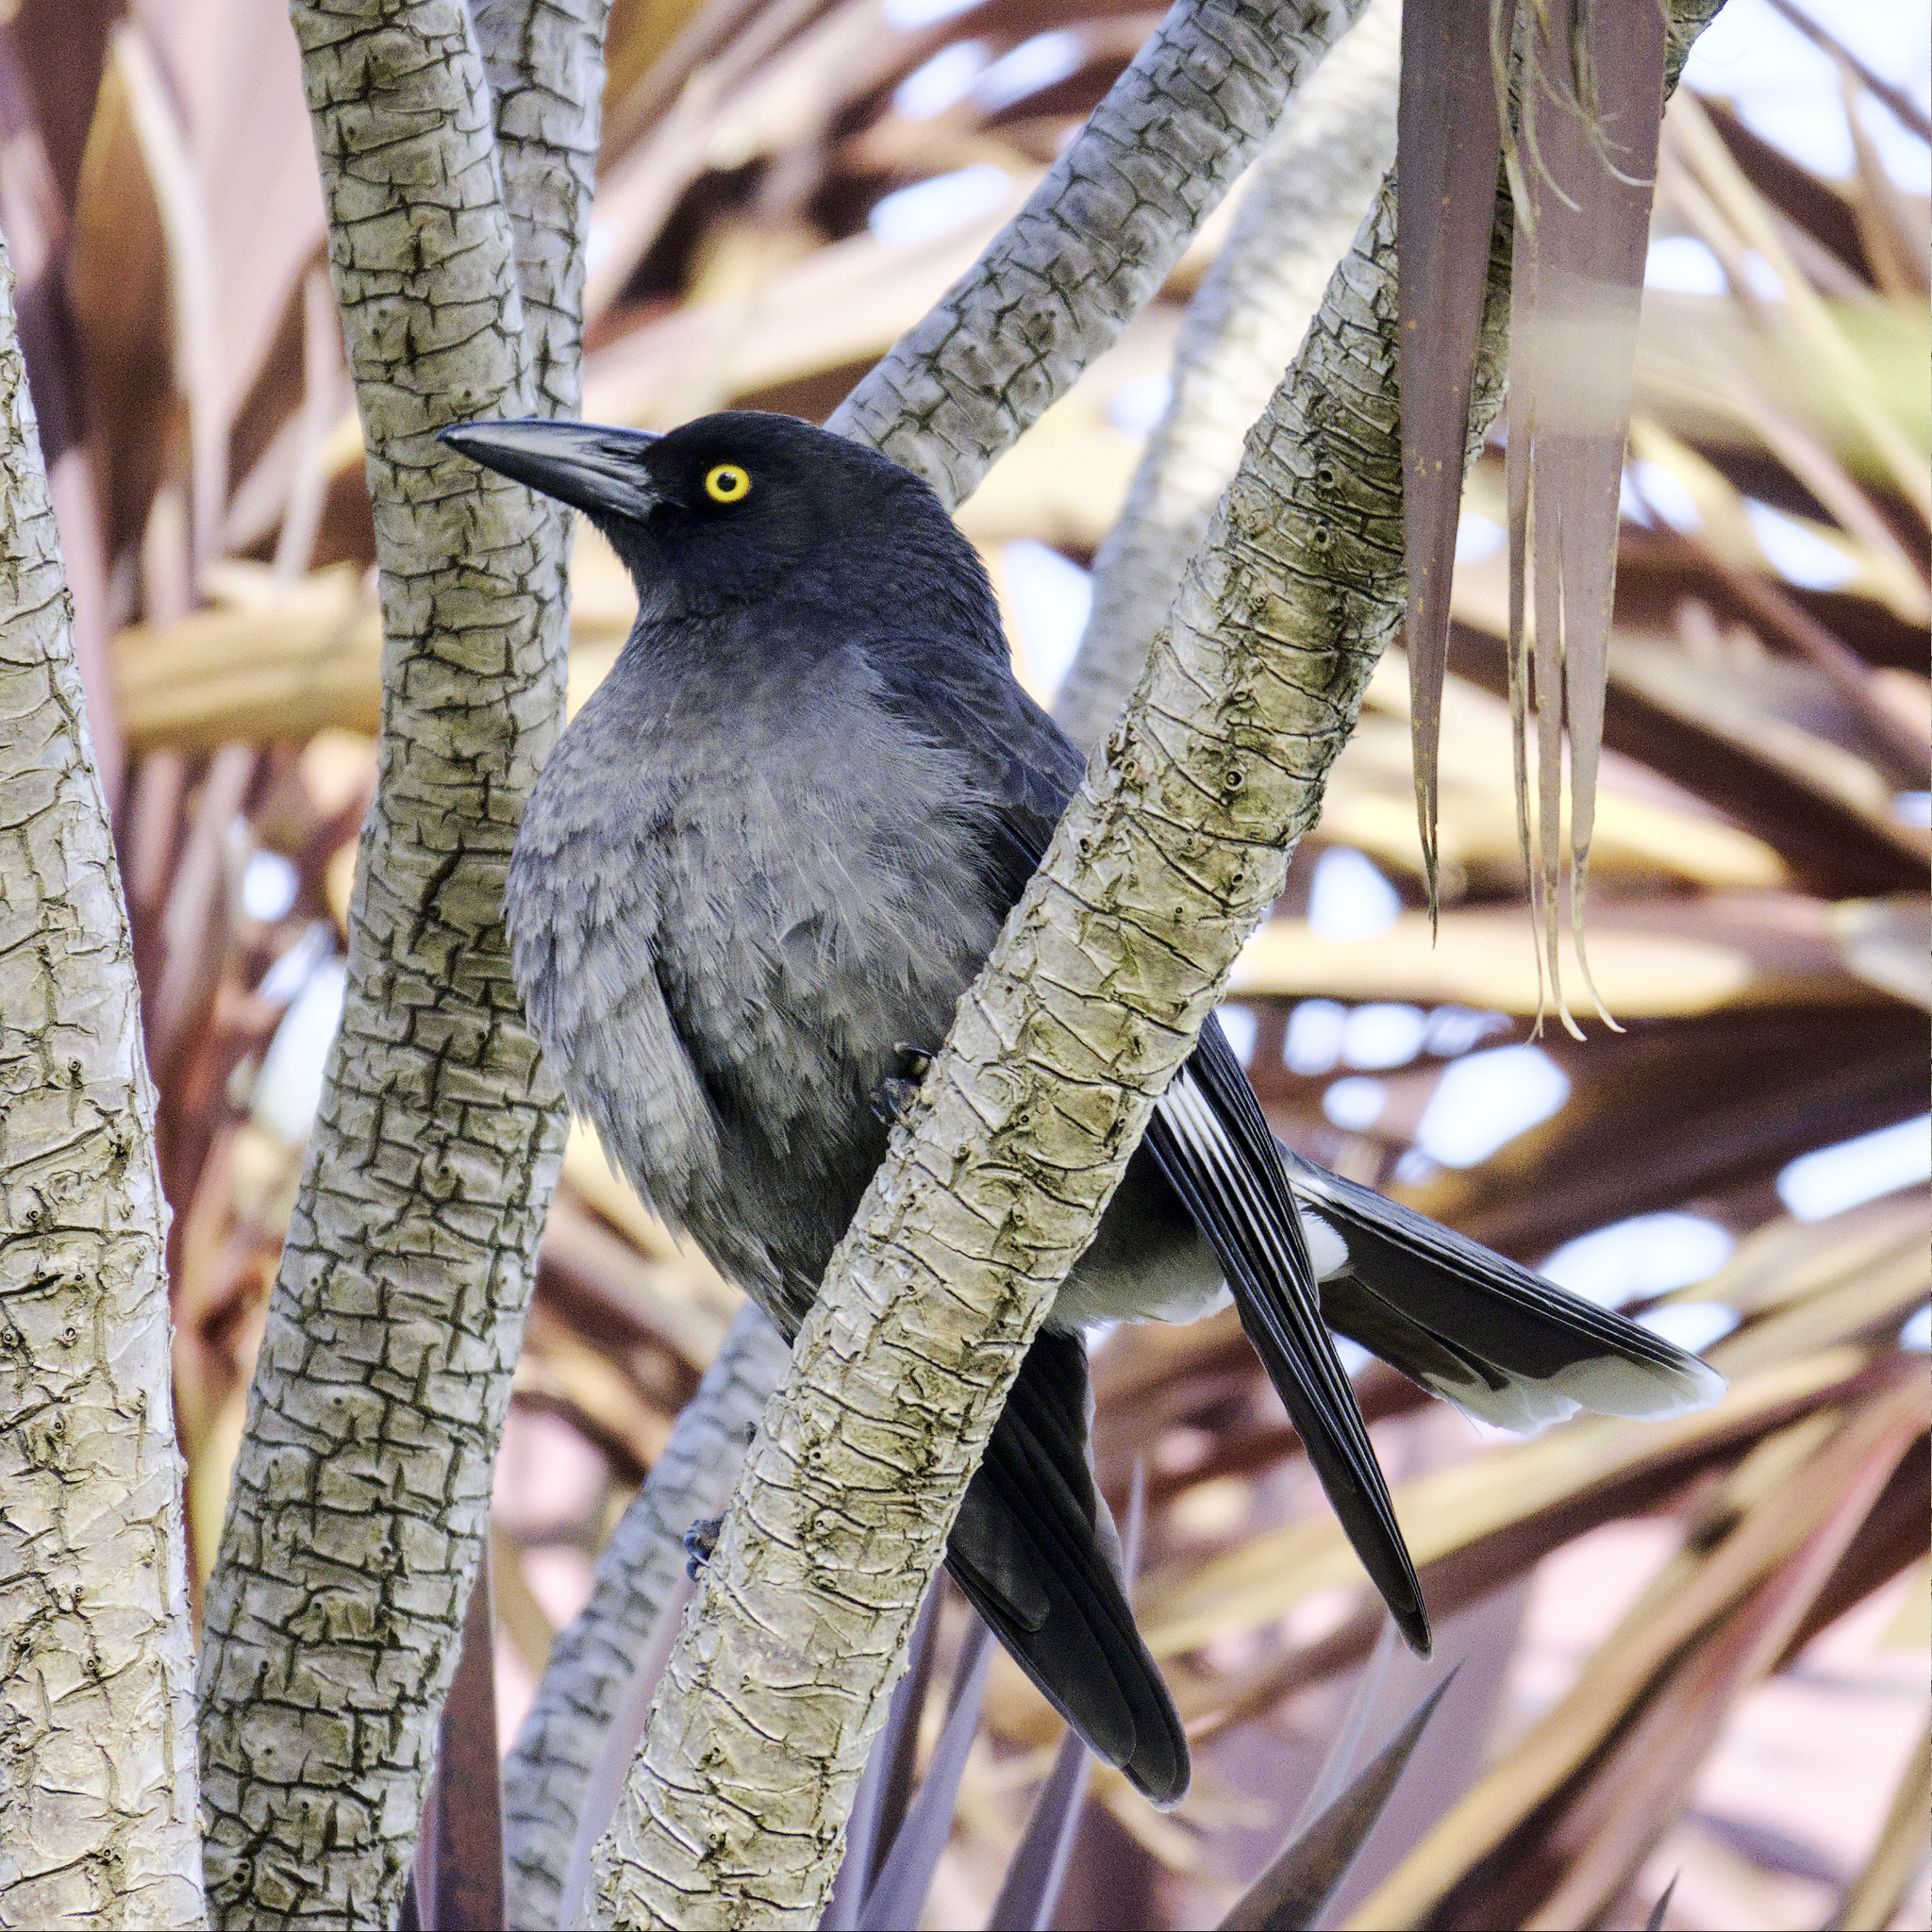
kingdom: Animalia
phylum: Chordata
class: Aves
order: Passeriformes
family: Cracticidae
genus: Strepera
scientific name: Strepera graculina
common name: Pied currawong
